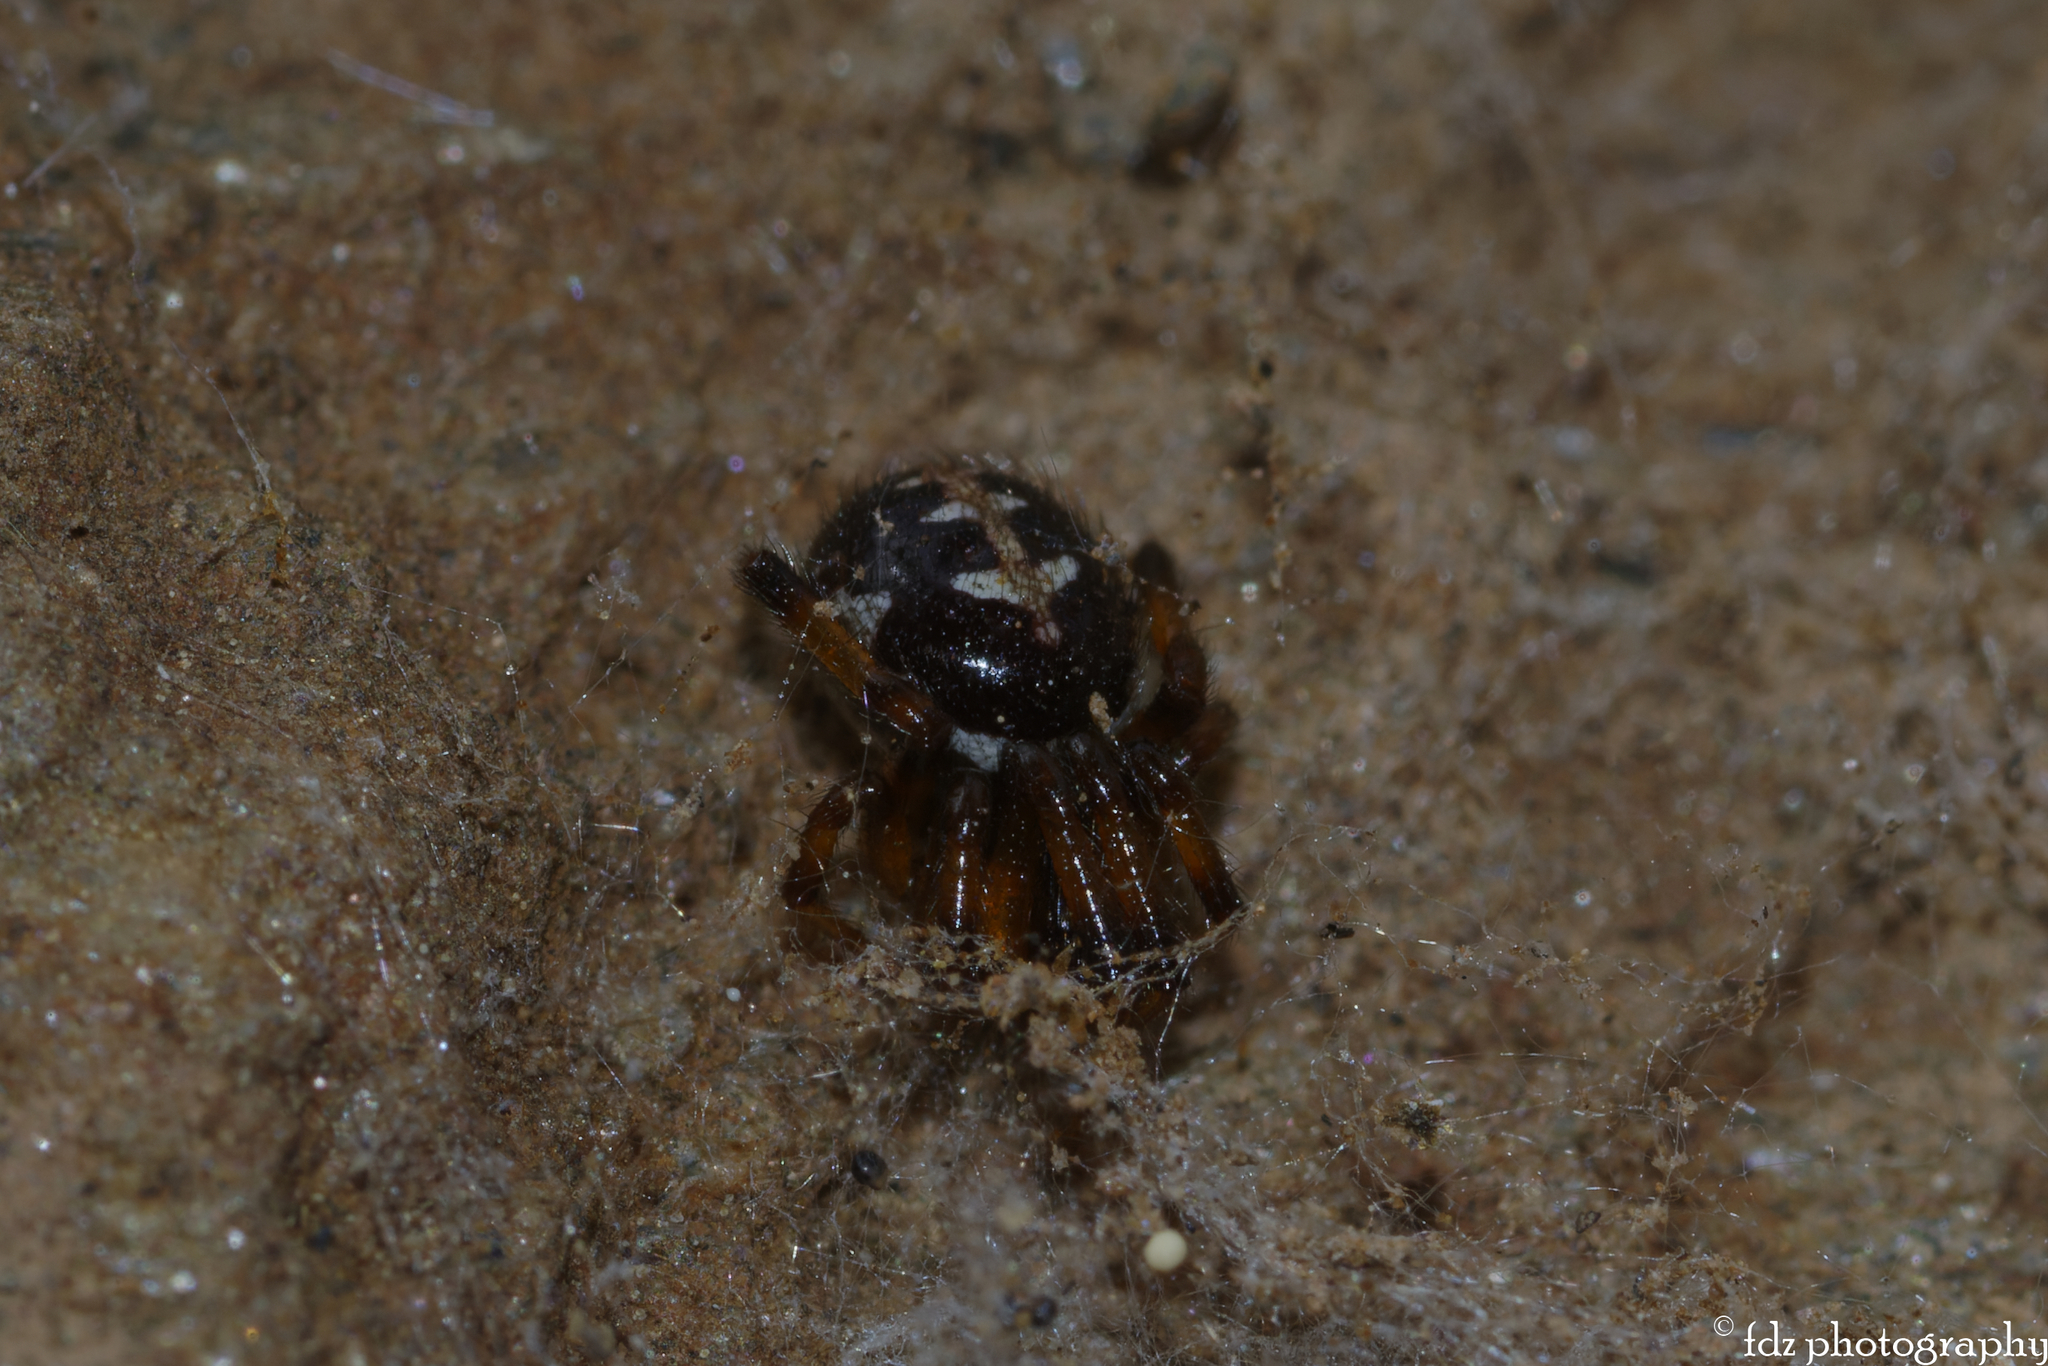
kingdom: Animalia
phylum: Arthropoda
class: Arachnida
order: Araneae
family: Theridiidae
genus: Steatoda
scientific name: Steatoda paykulliana
